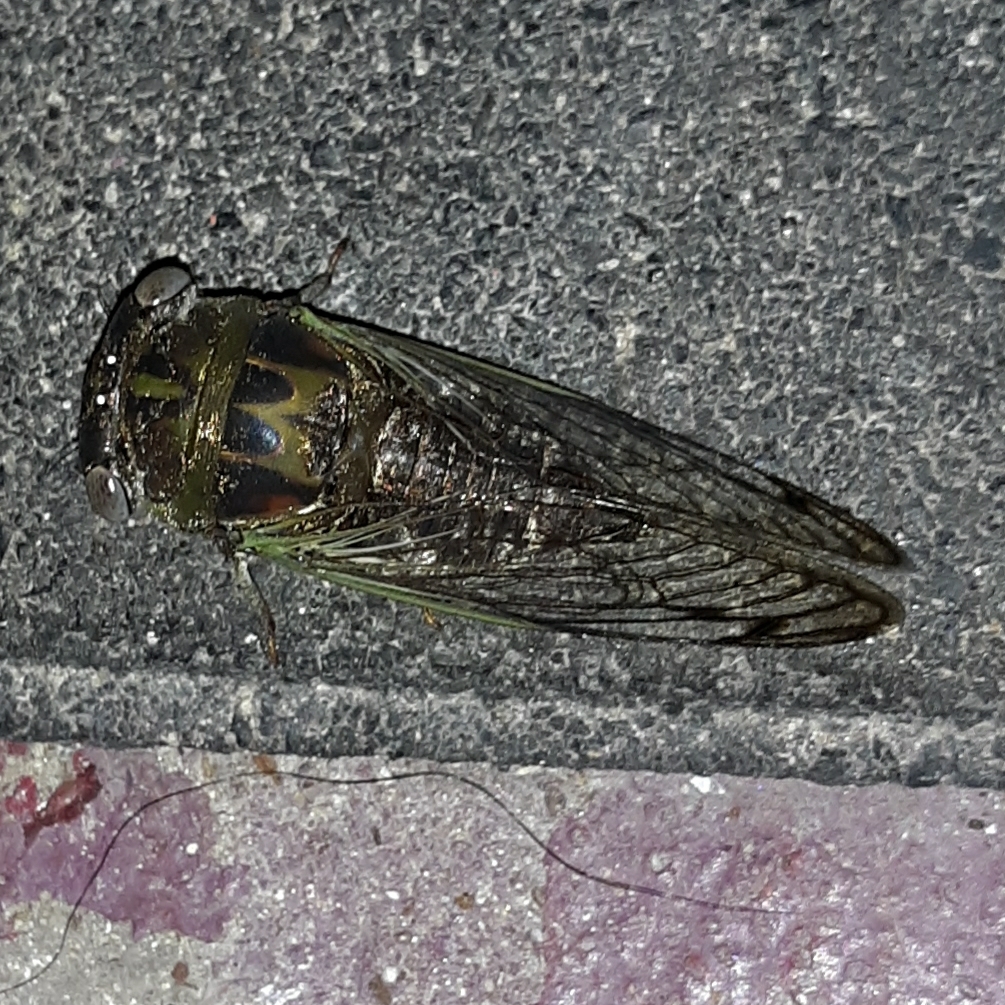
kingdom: Animalia
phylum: Arthropoda
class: Insecta
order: Hemiptera
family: Cicadidae
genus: Neotibicen
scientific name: Neotibicen davisi
